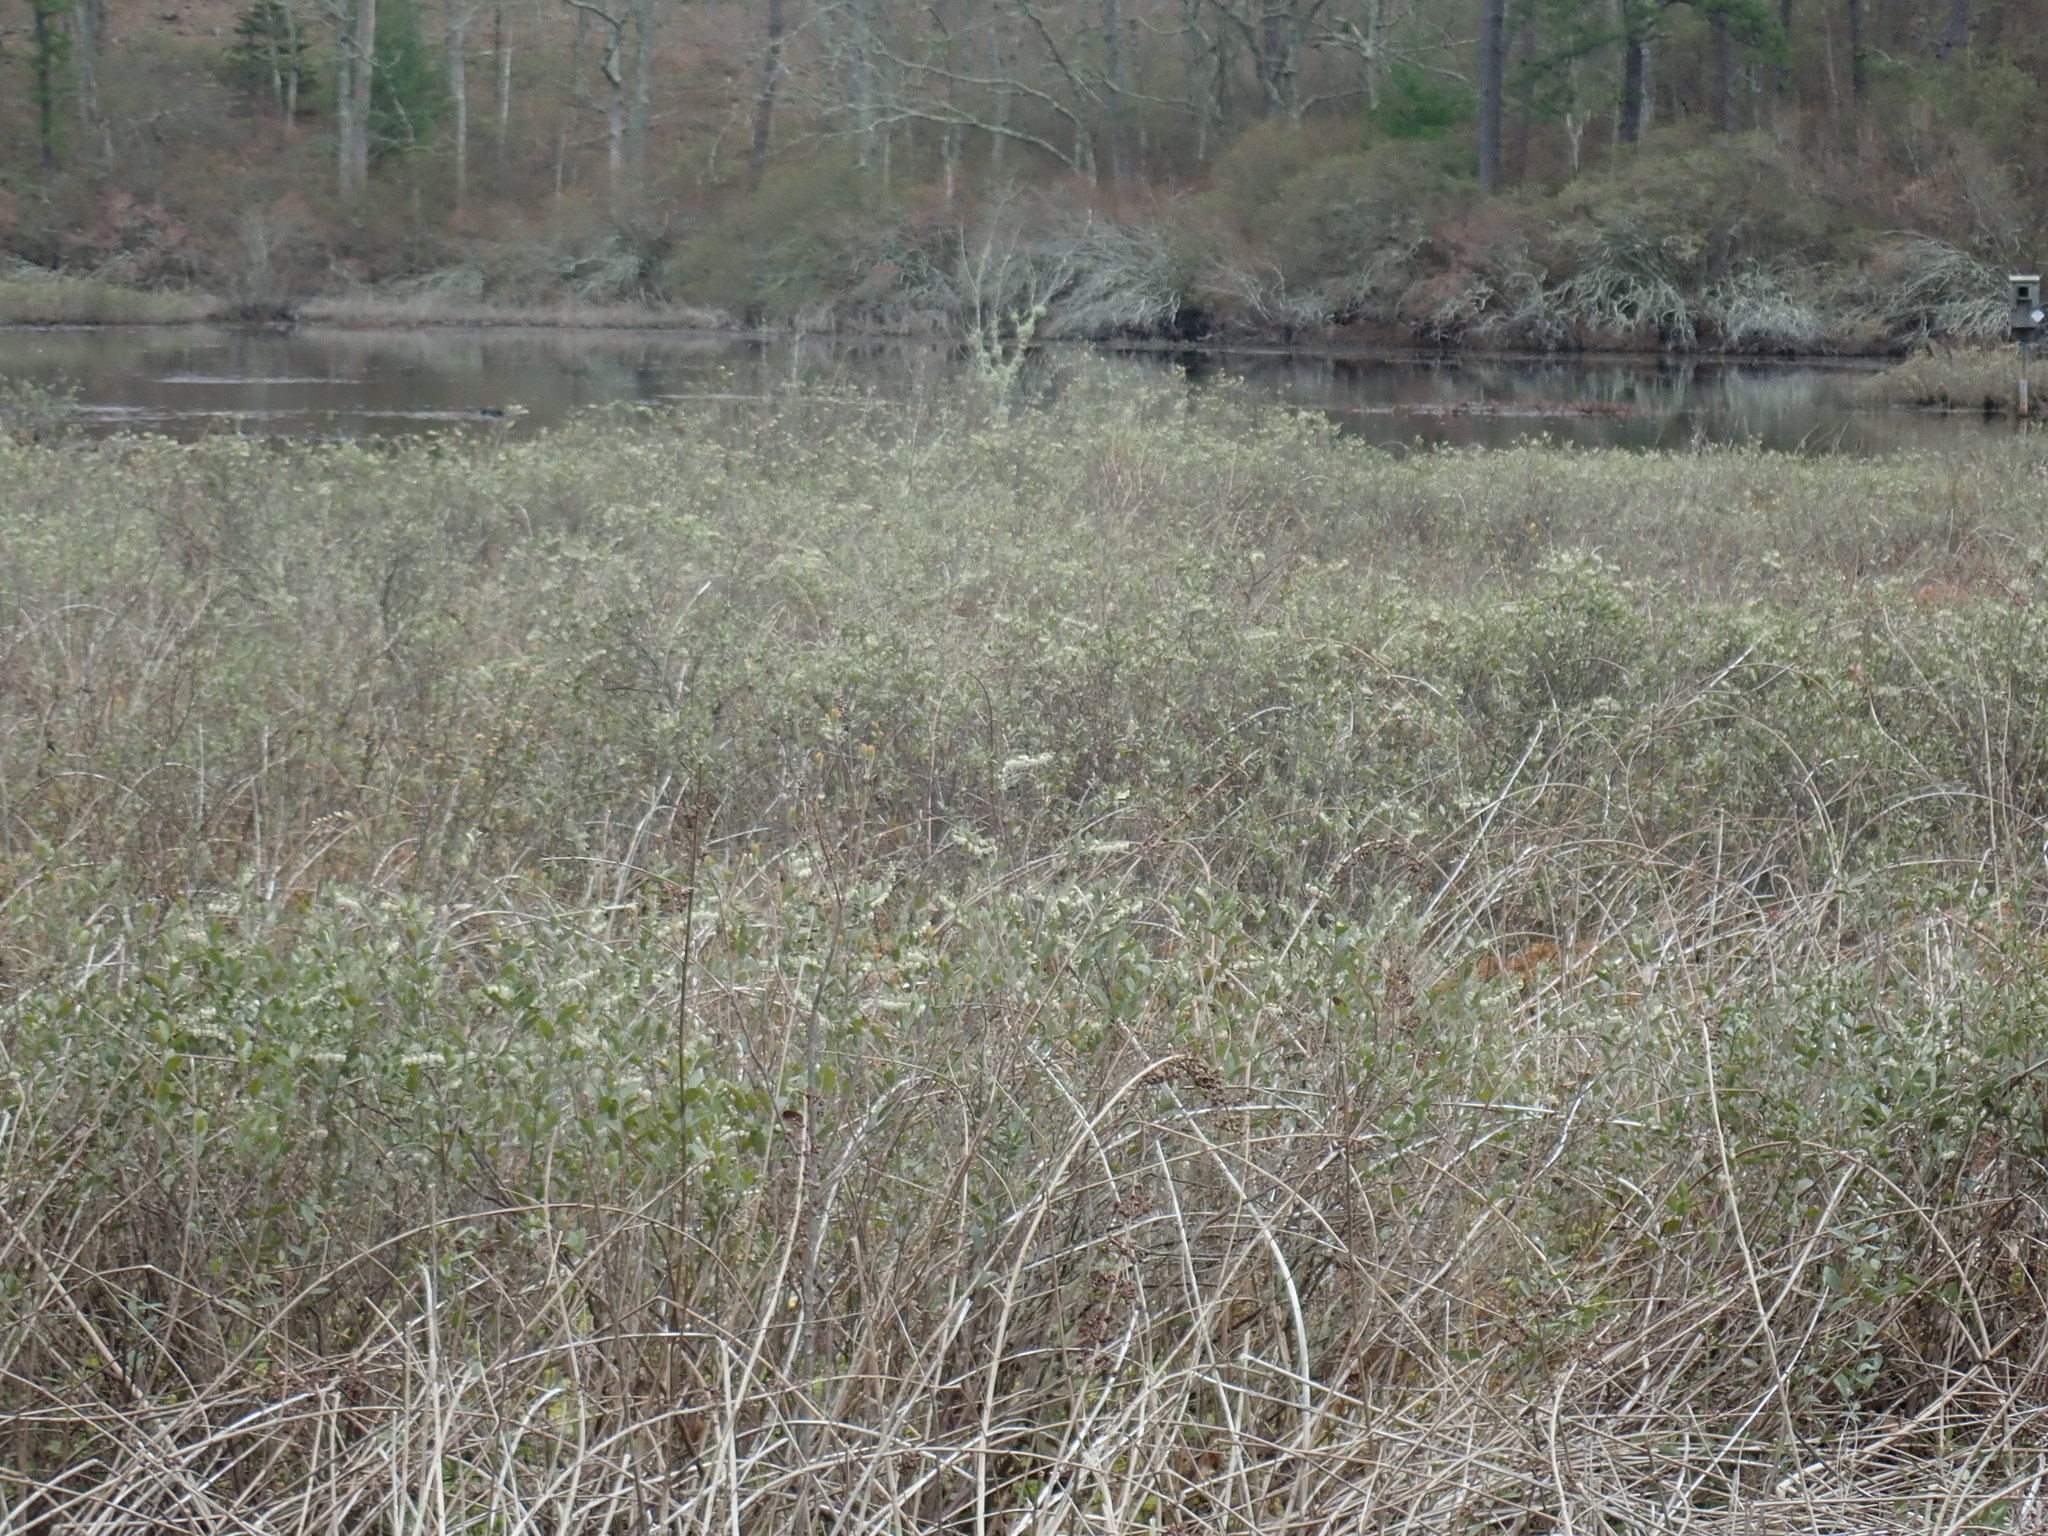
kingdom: Plantae
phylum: Tracheophyta
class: Magnoliopsida
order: Ericales
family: Ericaceae
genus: Chamaedaphne
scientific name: Chamaedaphne calyculata
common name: Leatherleaf
